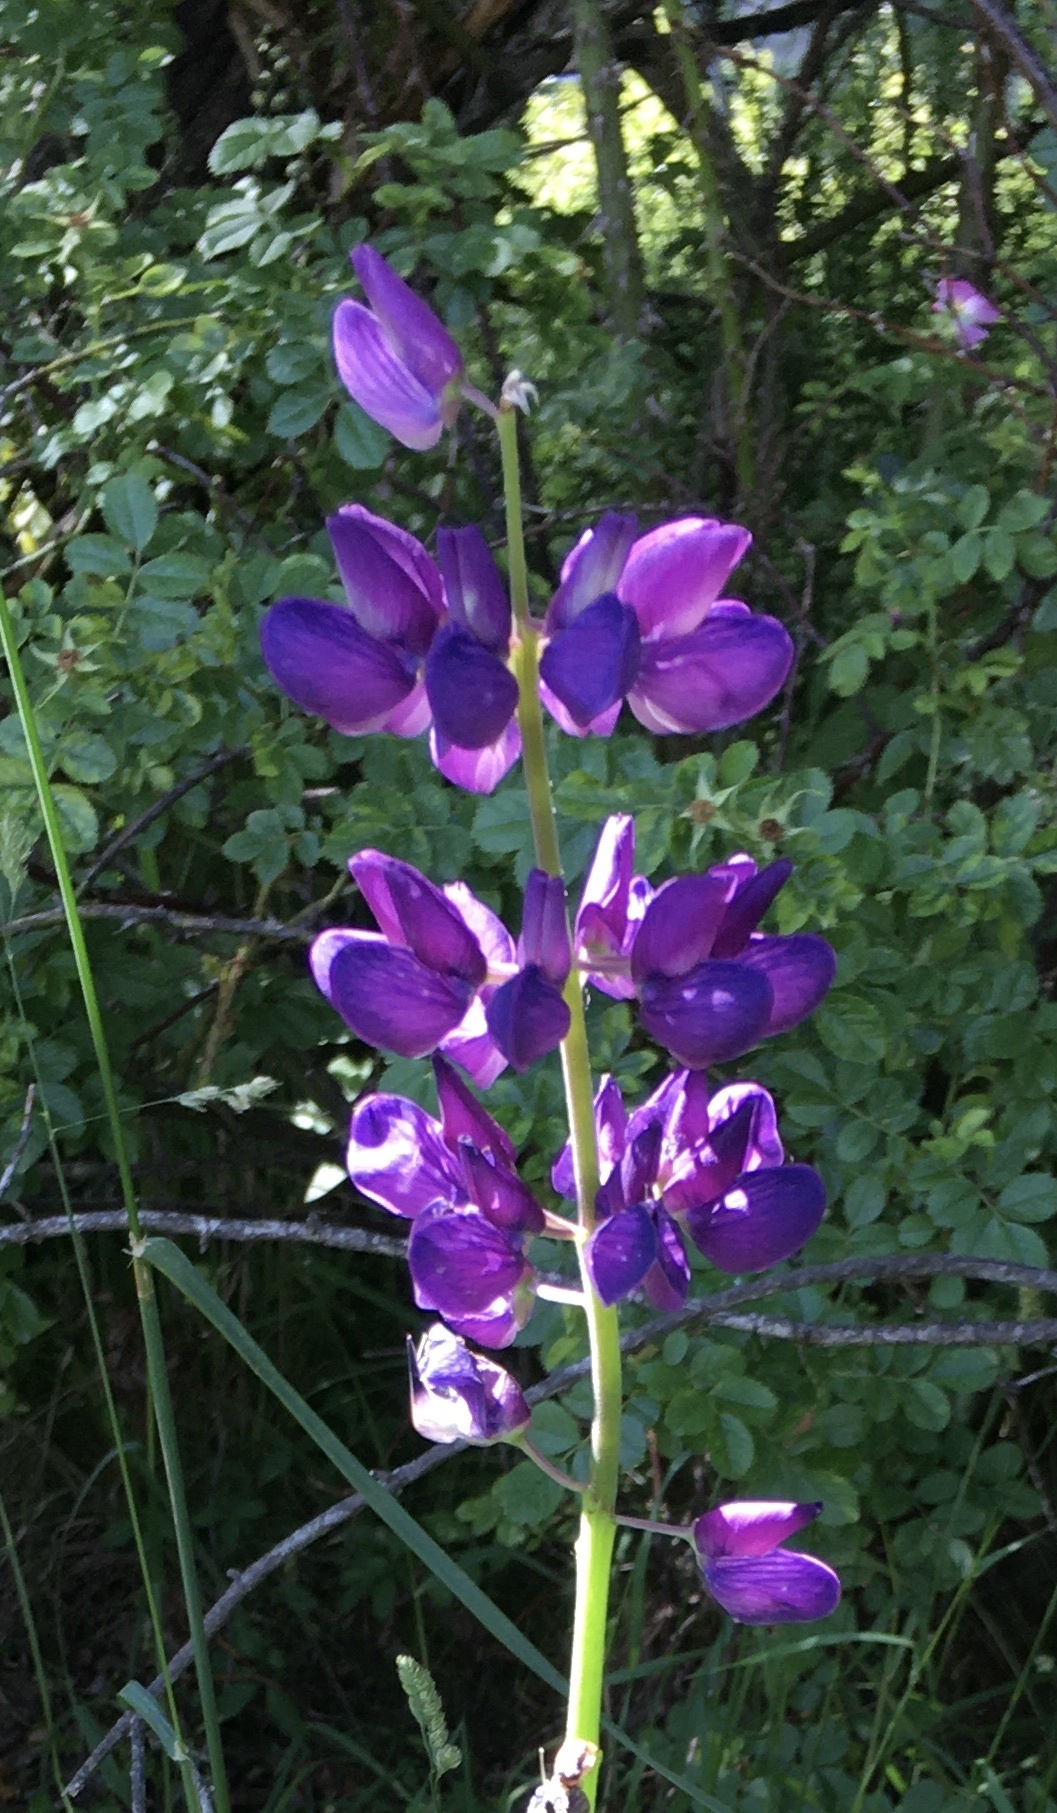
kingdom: Plantae
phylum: Tracheophyta
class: Magnoliopsida
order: Fabales
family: Fabaceae
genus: Lupinus
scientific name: Lupinus polyphyllus
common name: Garden lupin
